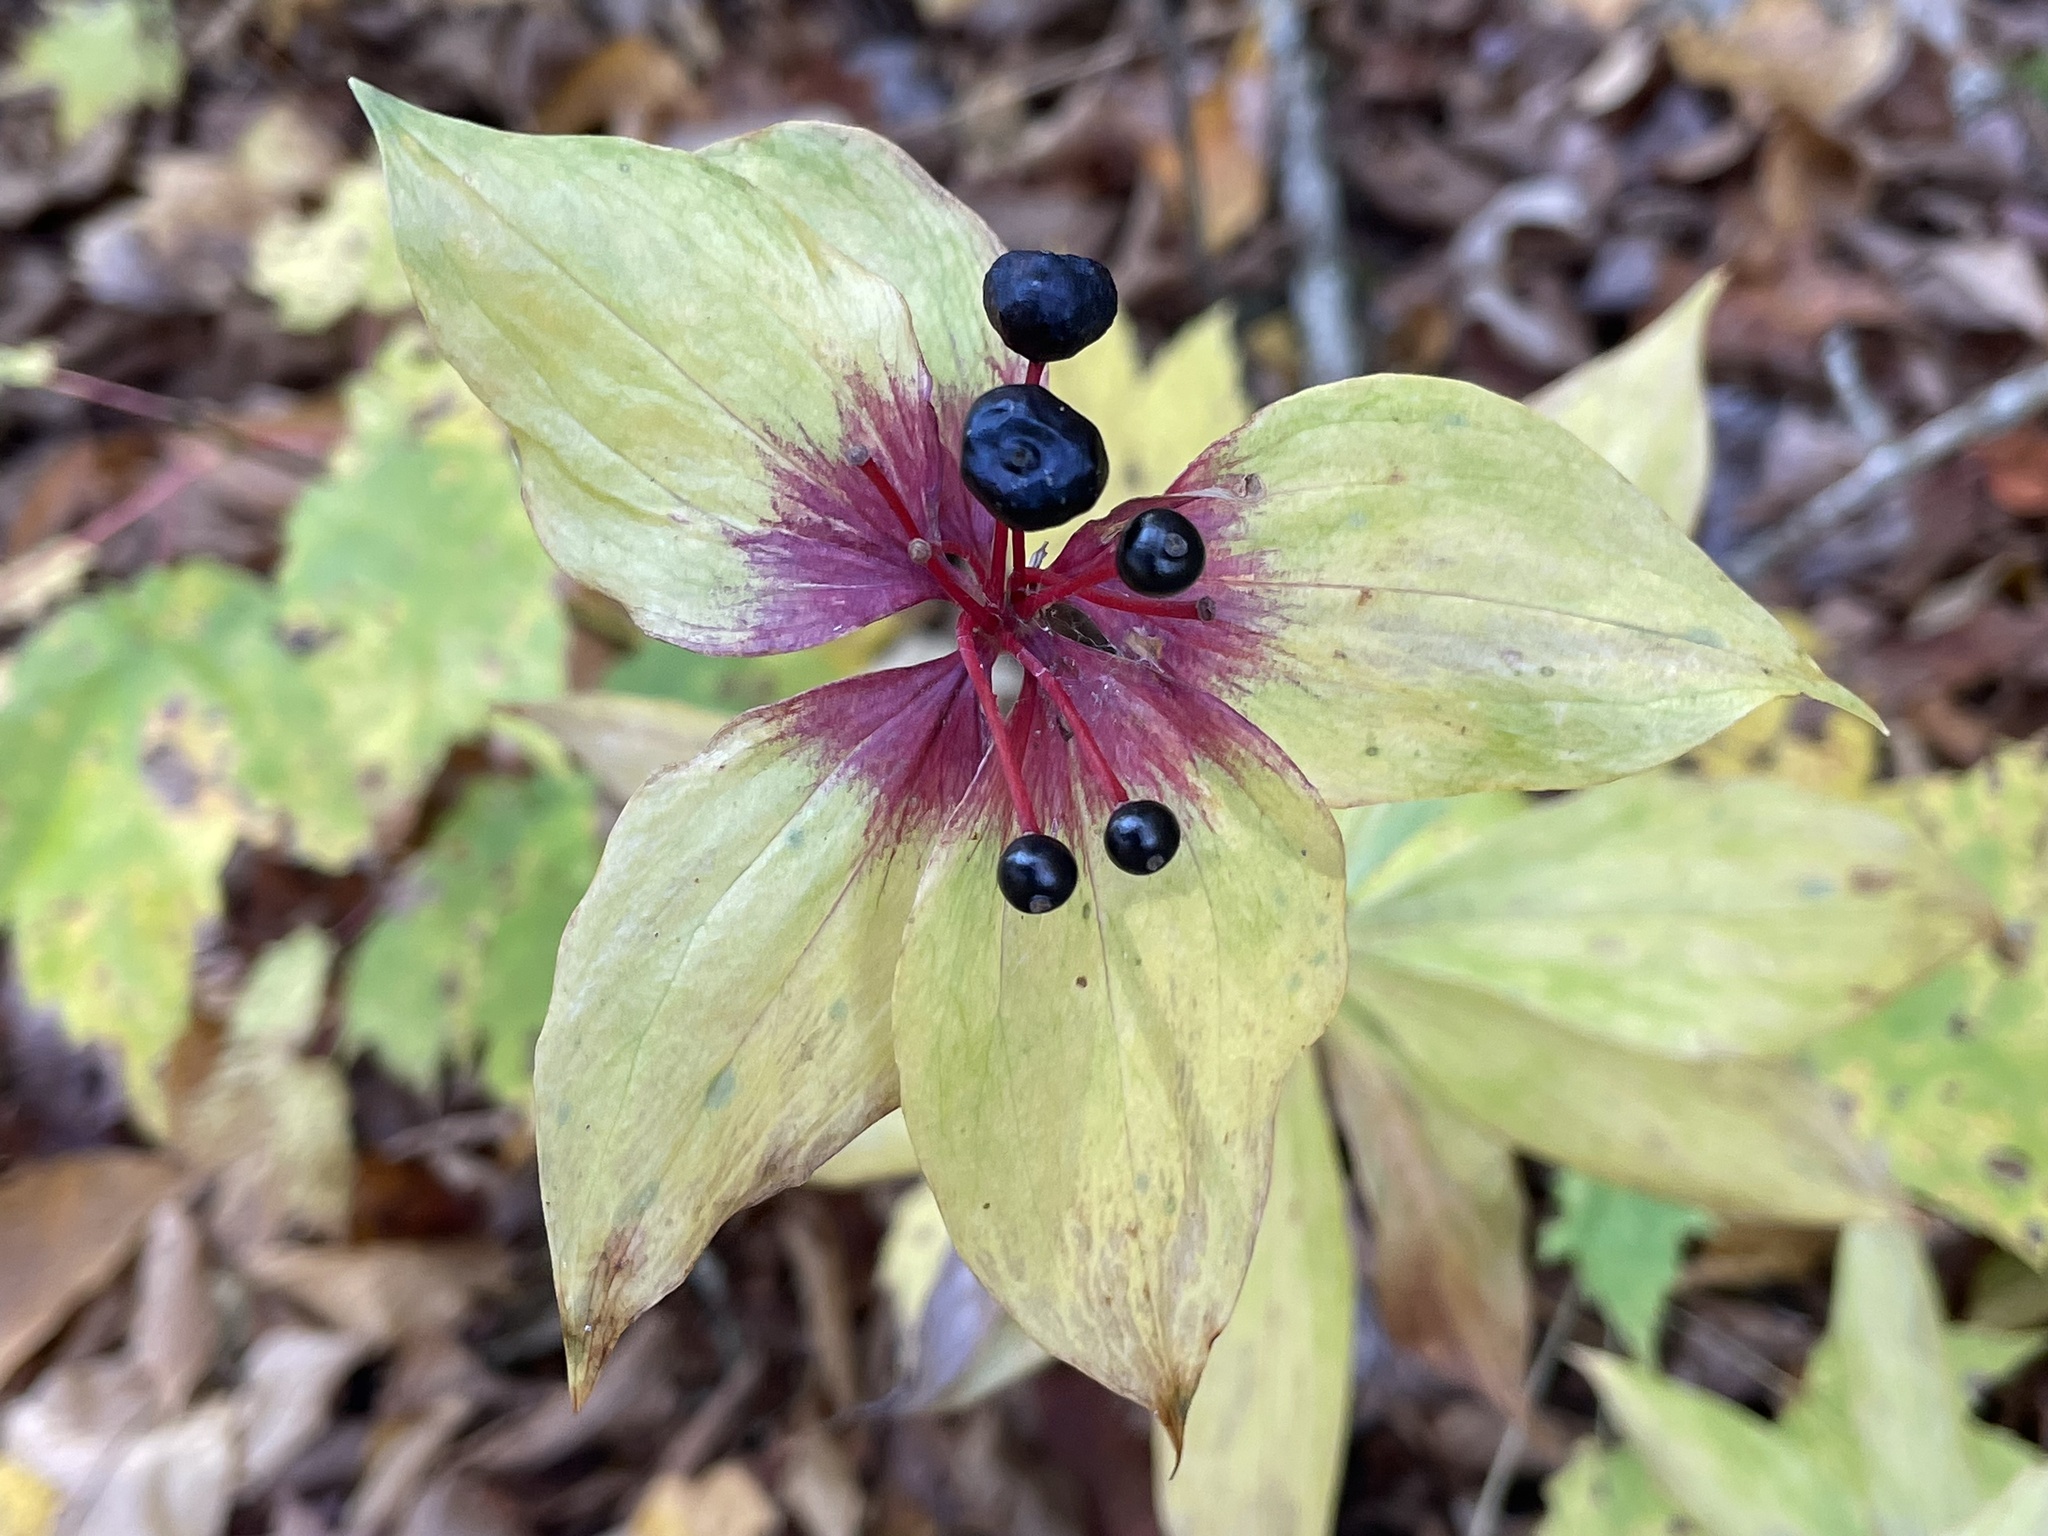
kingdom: Plantae
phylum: Tracheophyta
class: Liliopsida
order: Liliales
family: Liliaceae
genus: Medeola
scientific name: Medeola virginiana
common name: Indian cucumber-root
